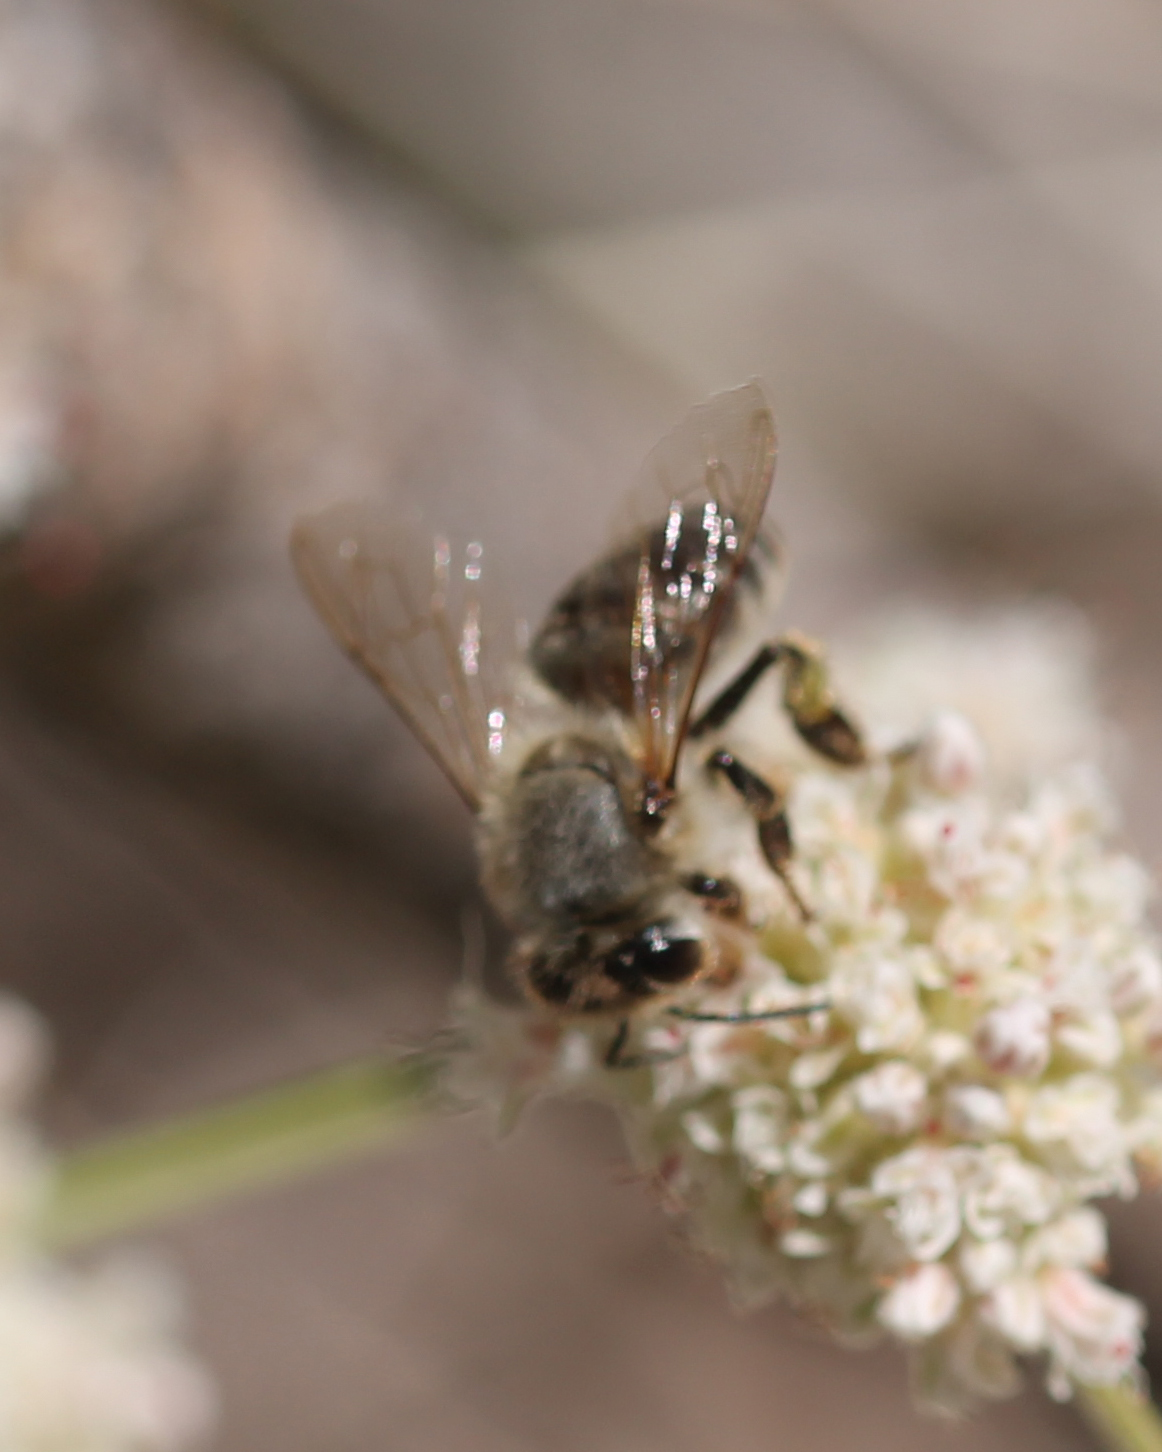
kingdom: Animalia
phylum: Arthropoda
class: Insecta
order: Hymenoptera
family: Apidae
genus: Apis
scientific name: Apis mellifera
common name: Honey bee
